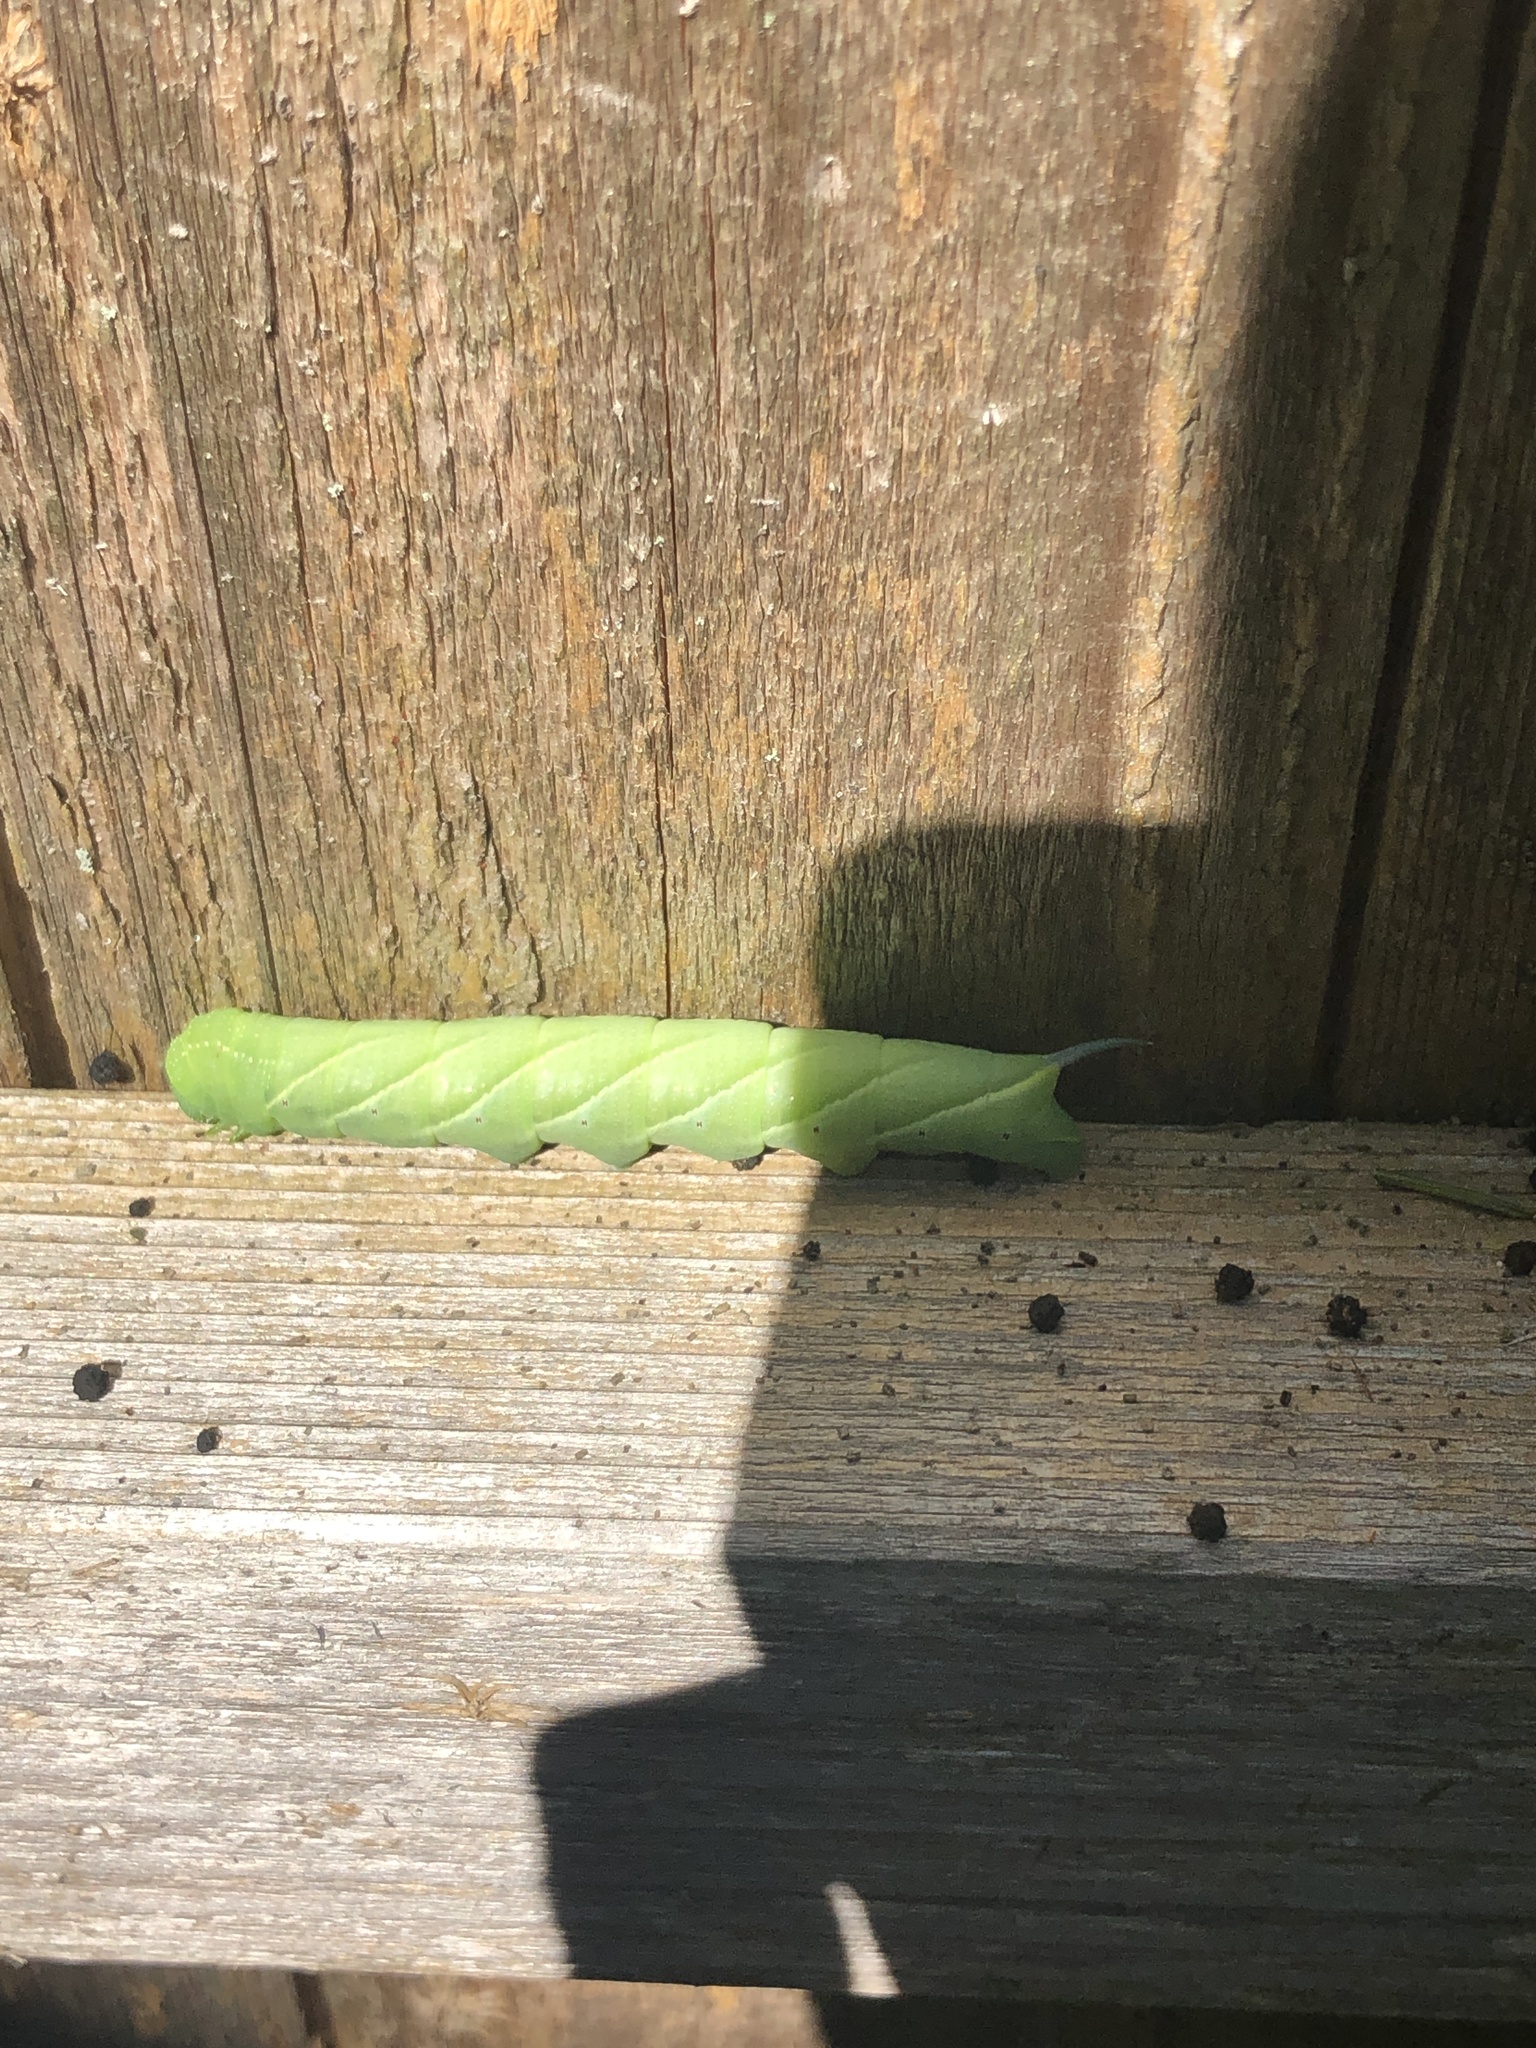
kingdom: Animalia
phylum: Arthropoda
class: Insecta
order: Lepidoptera
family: Sphingidae
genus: Paratrea
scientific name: Paratrea plebeja
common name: Plebian sphinx
